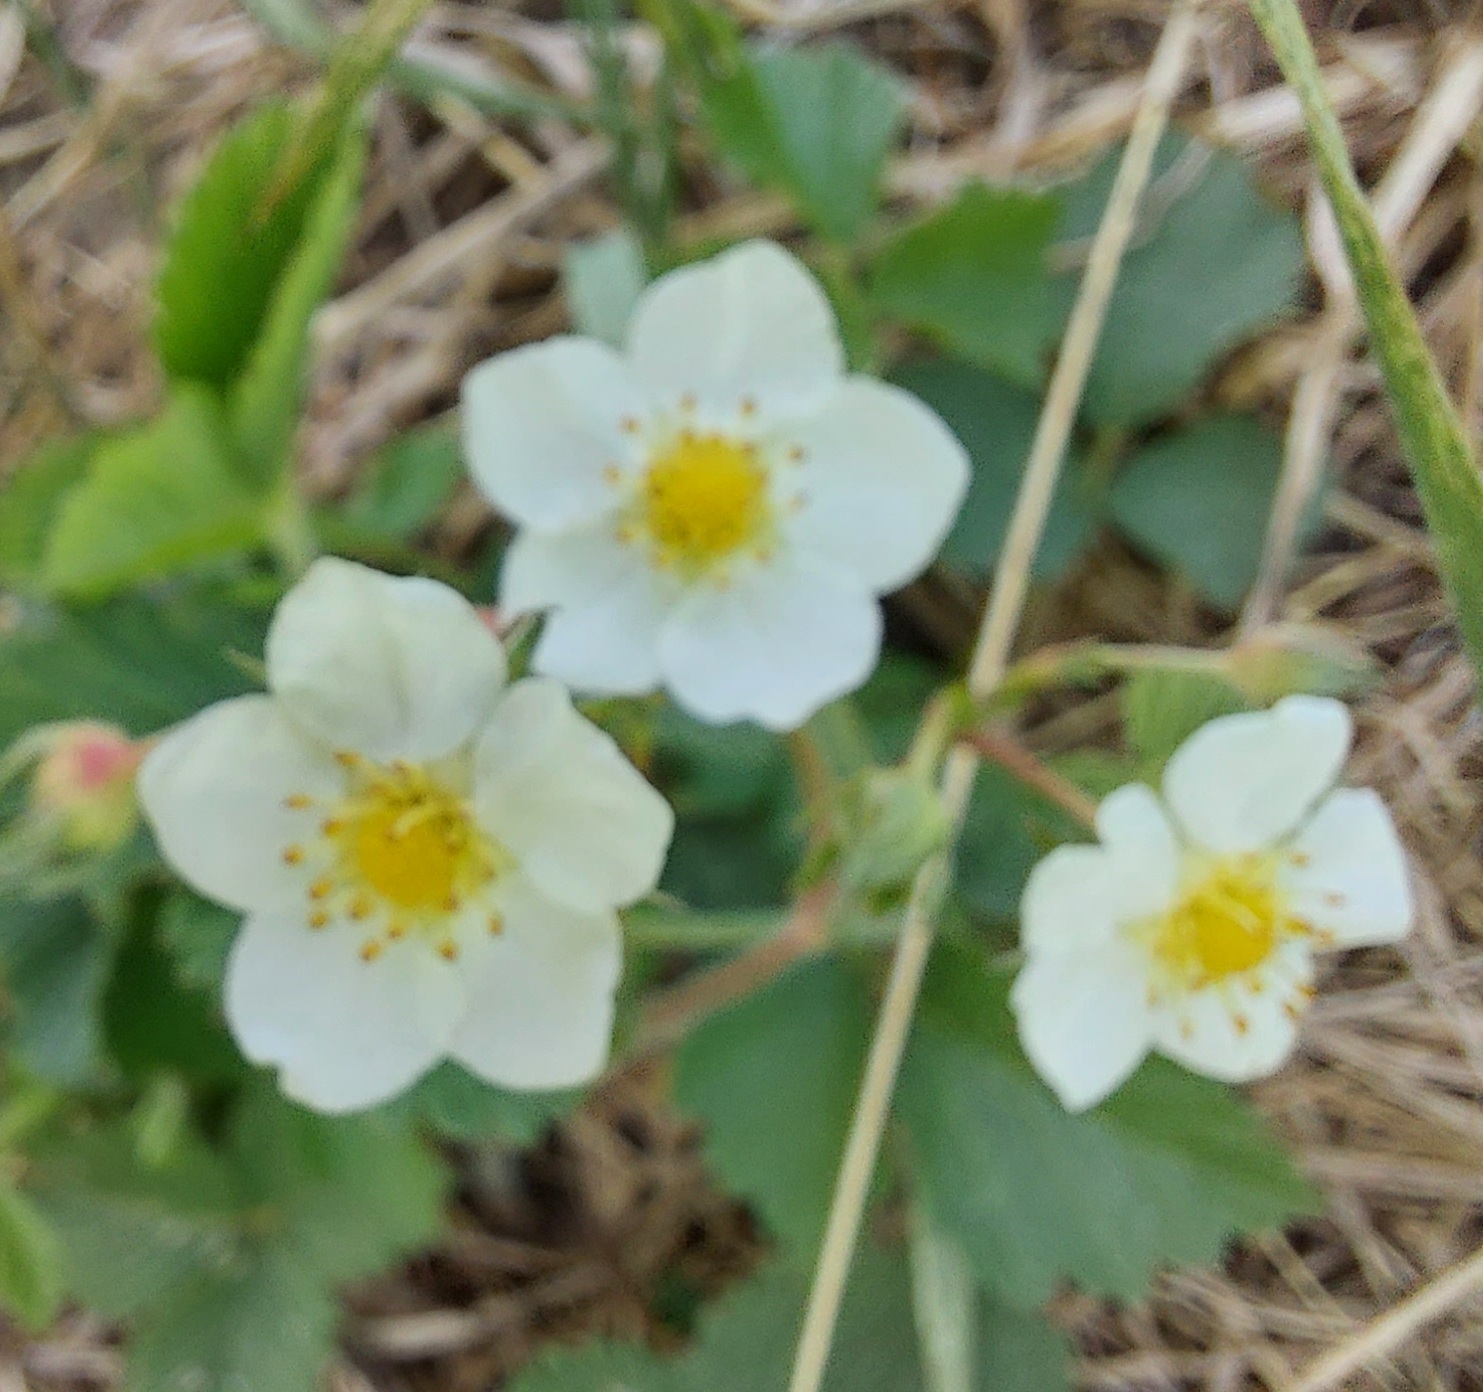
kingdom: Plantae
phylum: Tracheophyta
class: Magnoliopsida
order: Rosales
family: Rosaceae
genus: Fragaria
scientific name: Fragaria viridis
